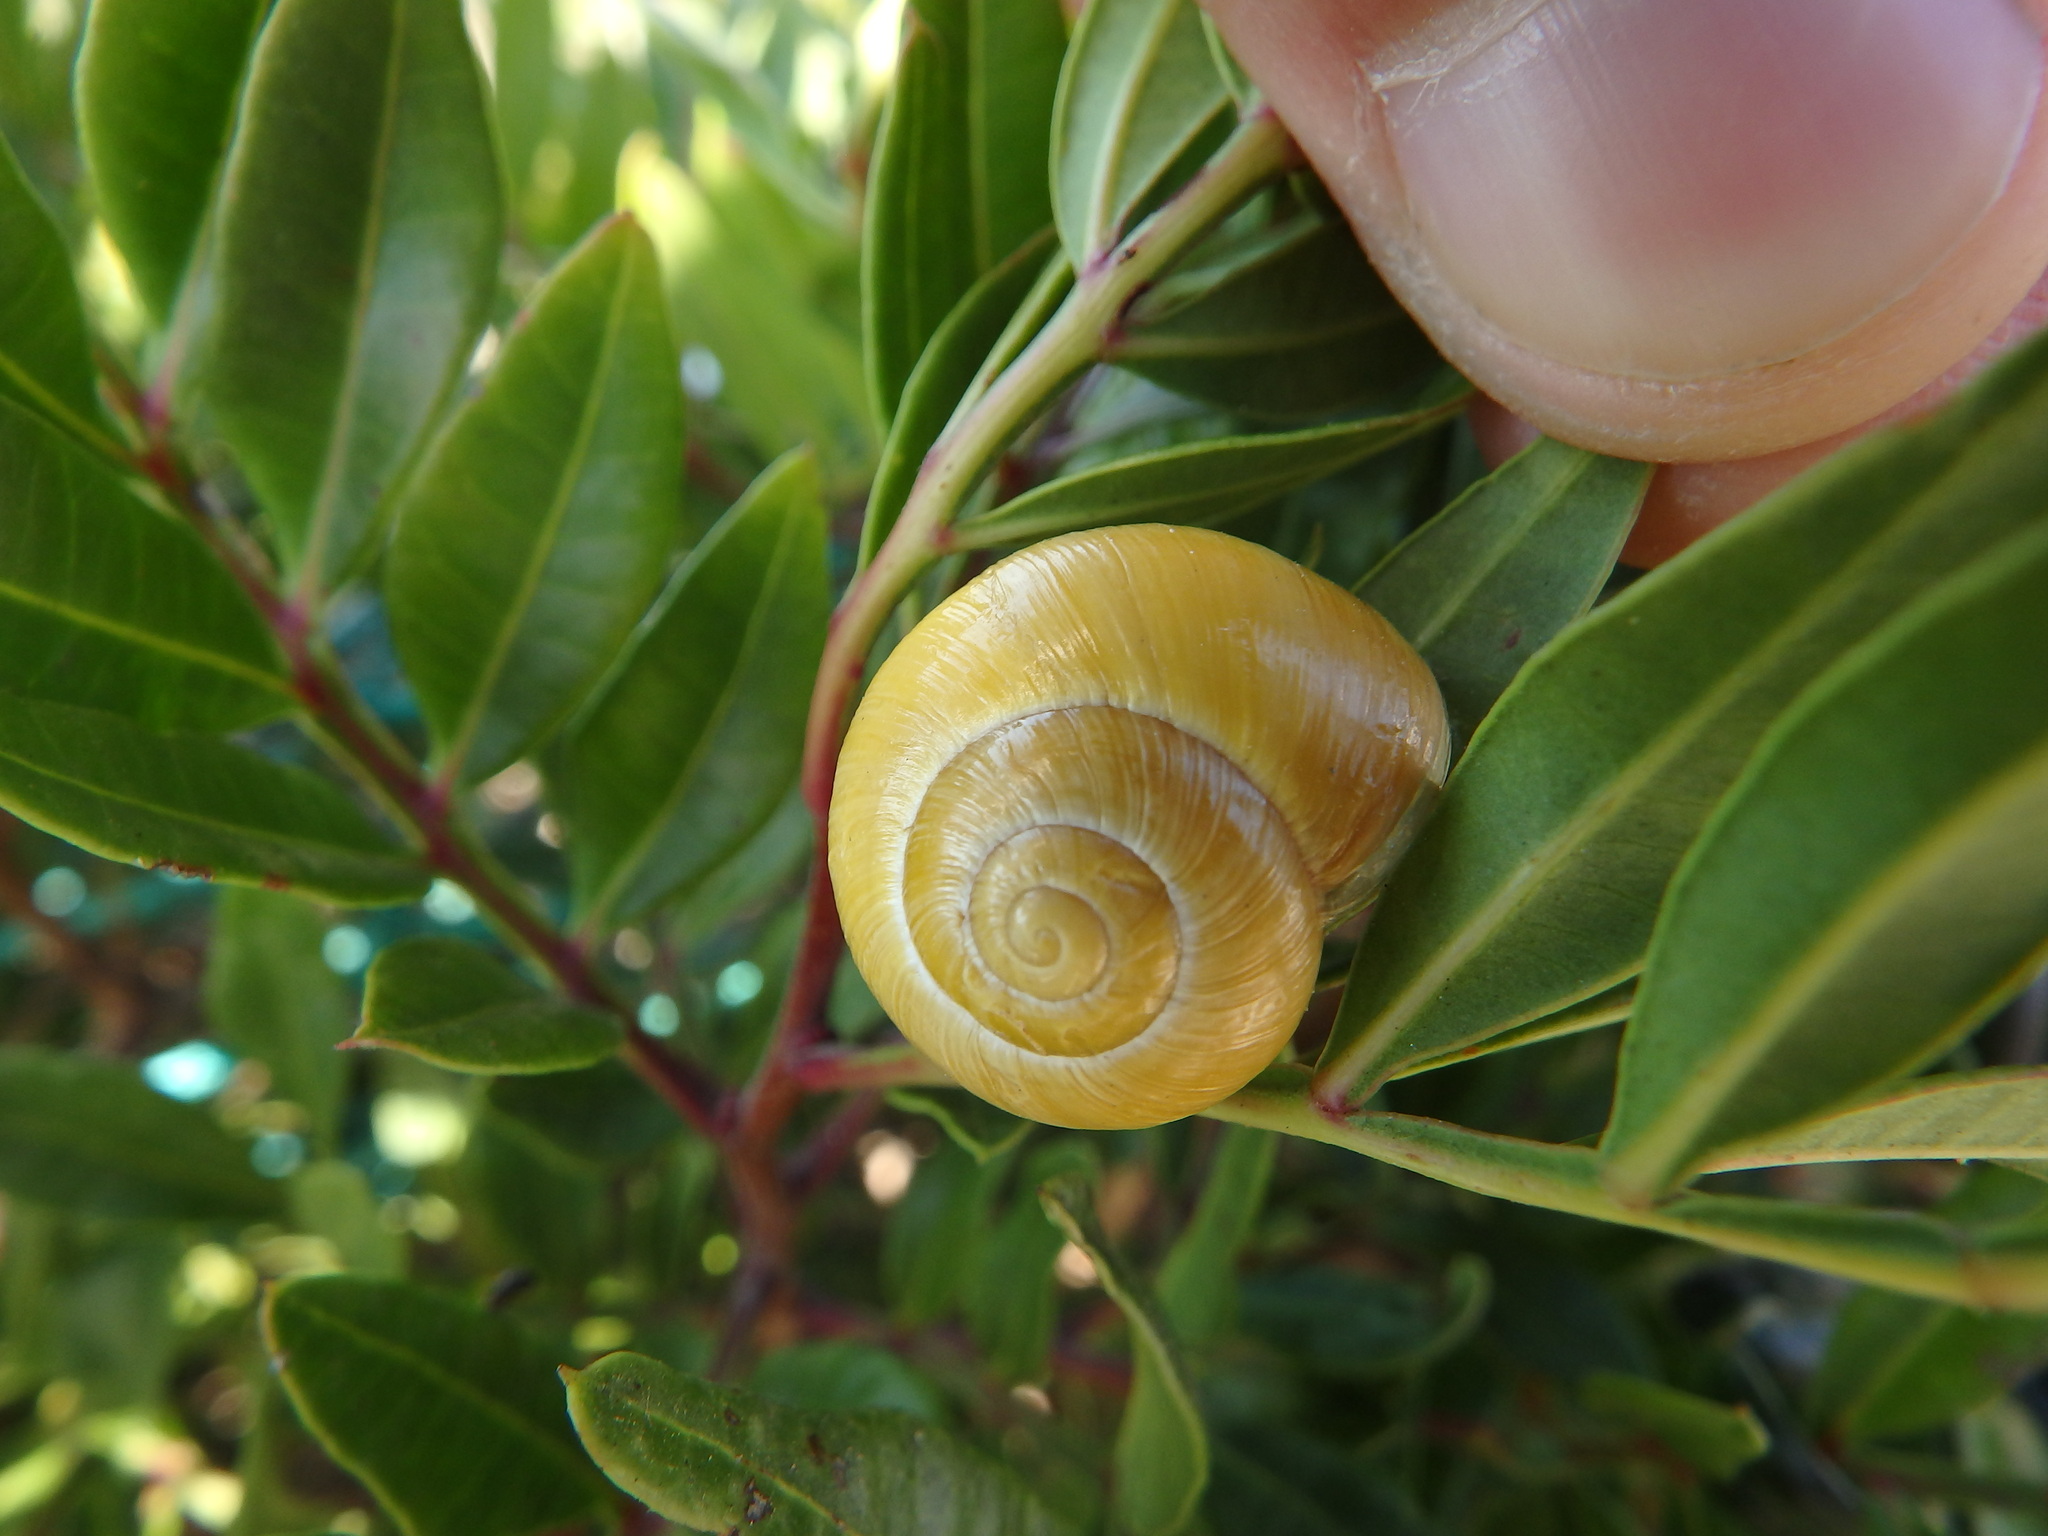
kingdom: Animalia
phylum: Mollusca
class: Gastropoda
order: Stylommatophora
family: Helicidae
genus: Cepaea
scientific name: Cepaea nemoralis
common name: Grovesnail
